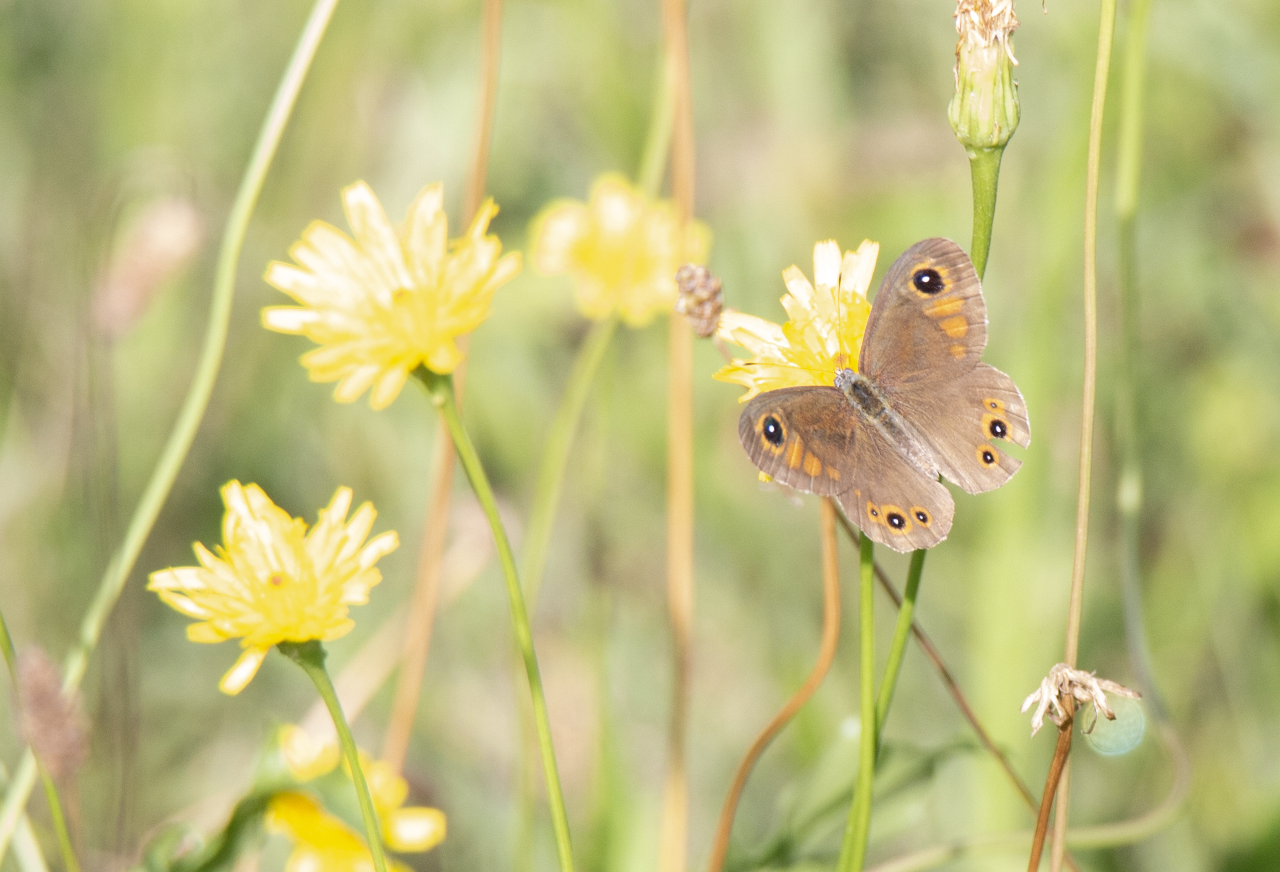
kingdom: Animalia
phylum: Arthropoda
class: Insecta
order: Lepidoptera
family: Nymphalidae
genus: Pararge
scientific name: Pararge Lasiommata maera
